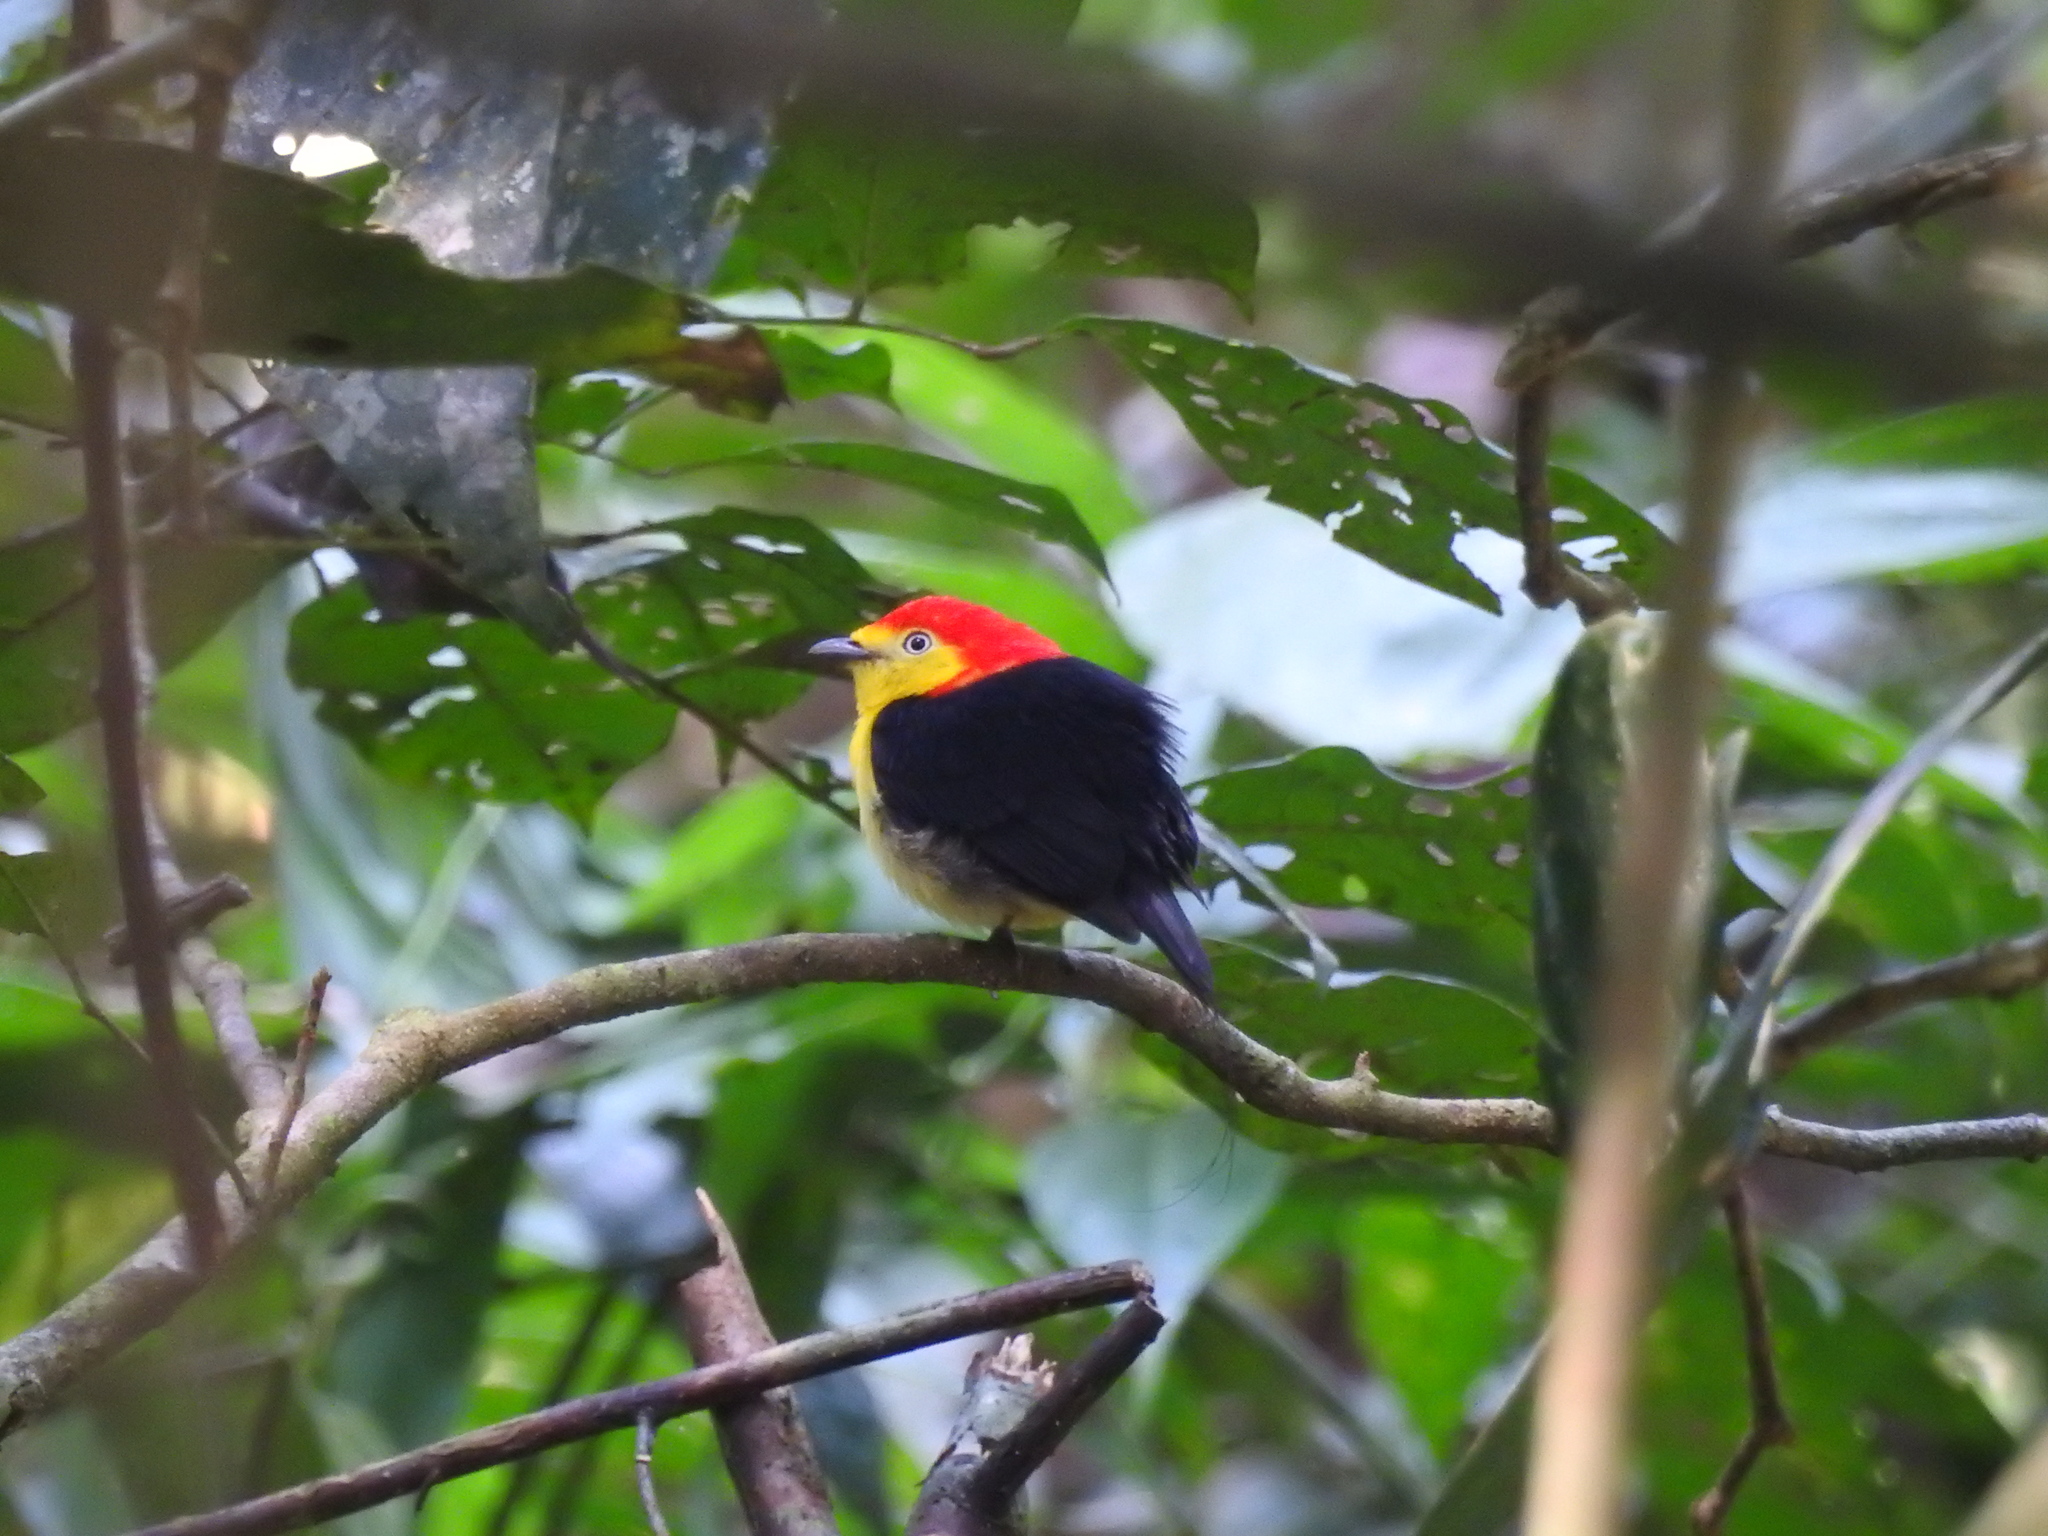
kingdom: Animalia
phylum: Chordata
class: Aves
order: Passeriformes
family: Pipridae
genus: Pipra
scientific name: Pipra filicauda
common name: Wire-tailed manakin
